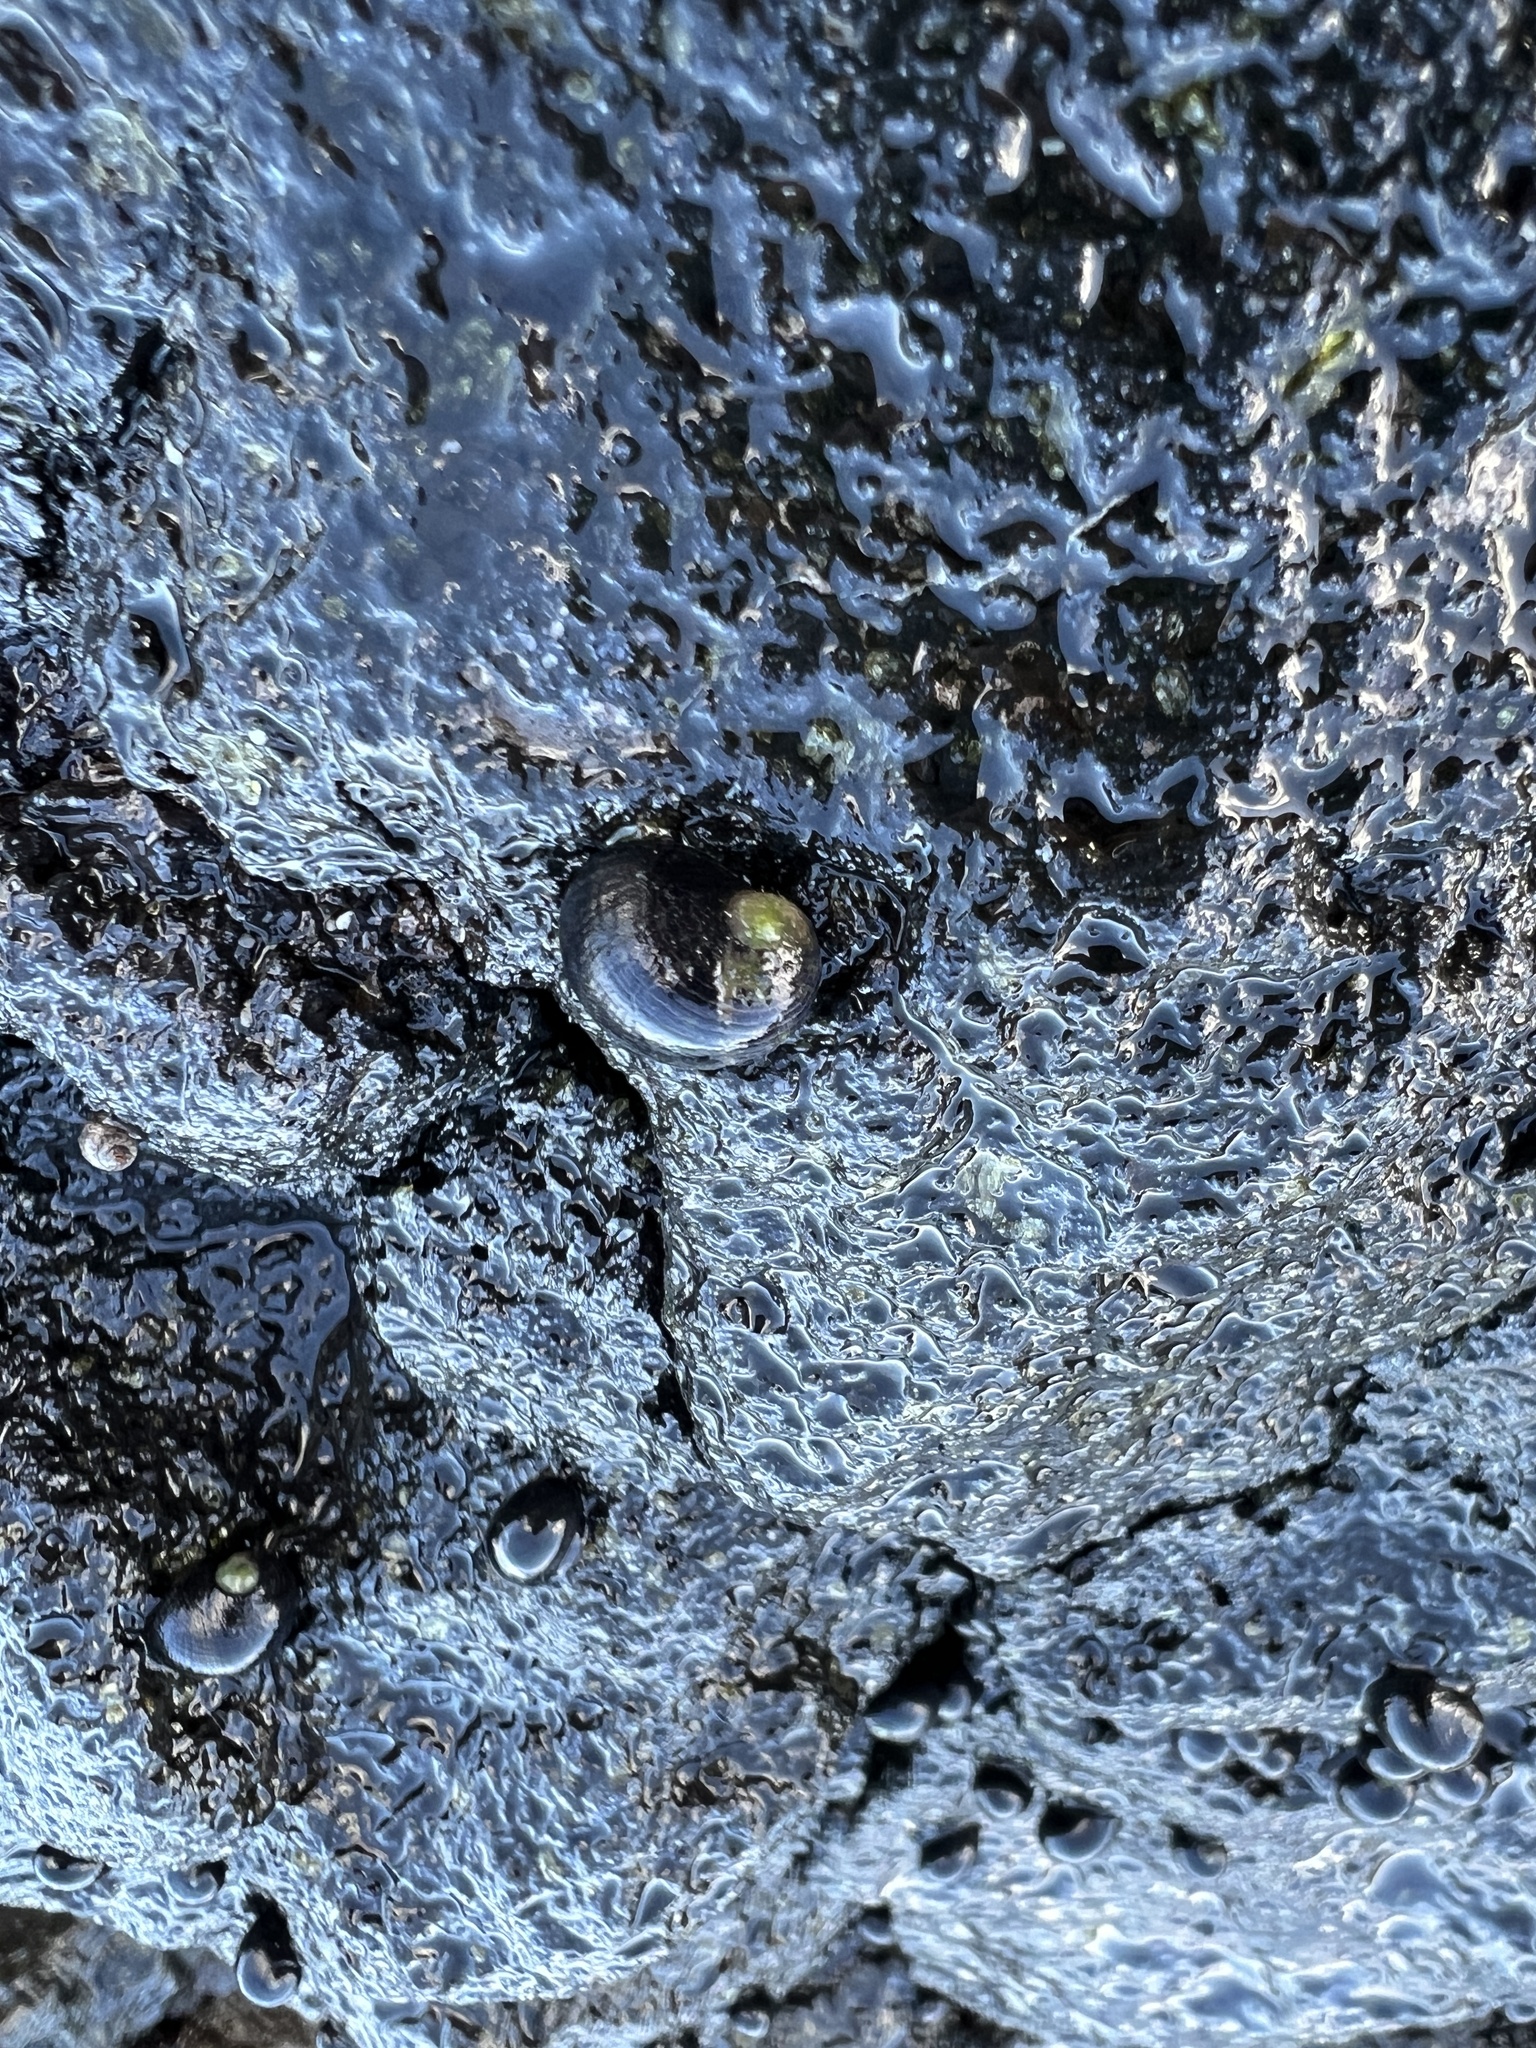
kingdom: Animalia
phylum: Mollusca
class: Gastropoda
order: Cycloneritida
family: Neritidae
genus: Nerita
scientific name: Nerita picea
